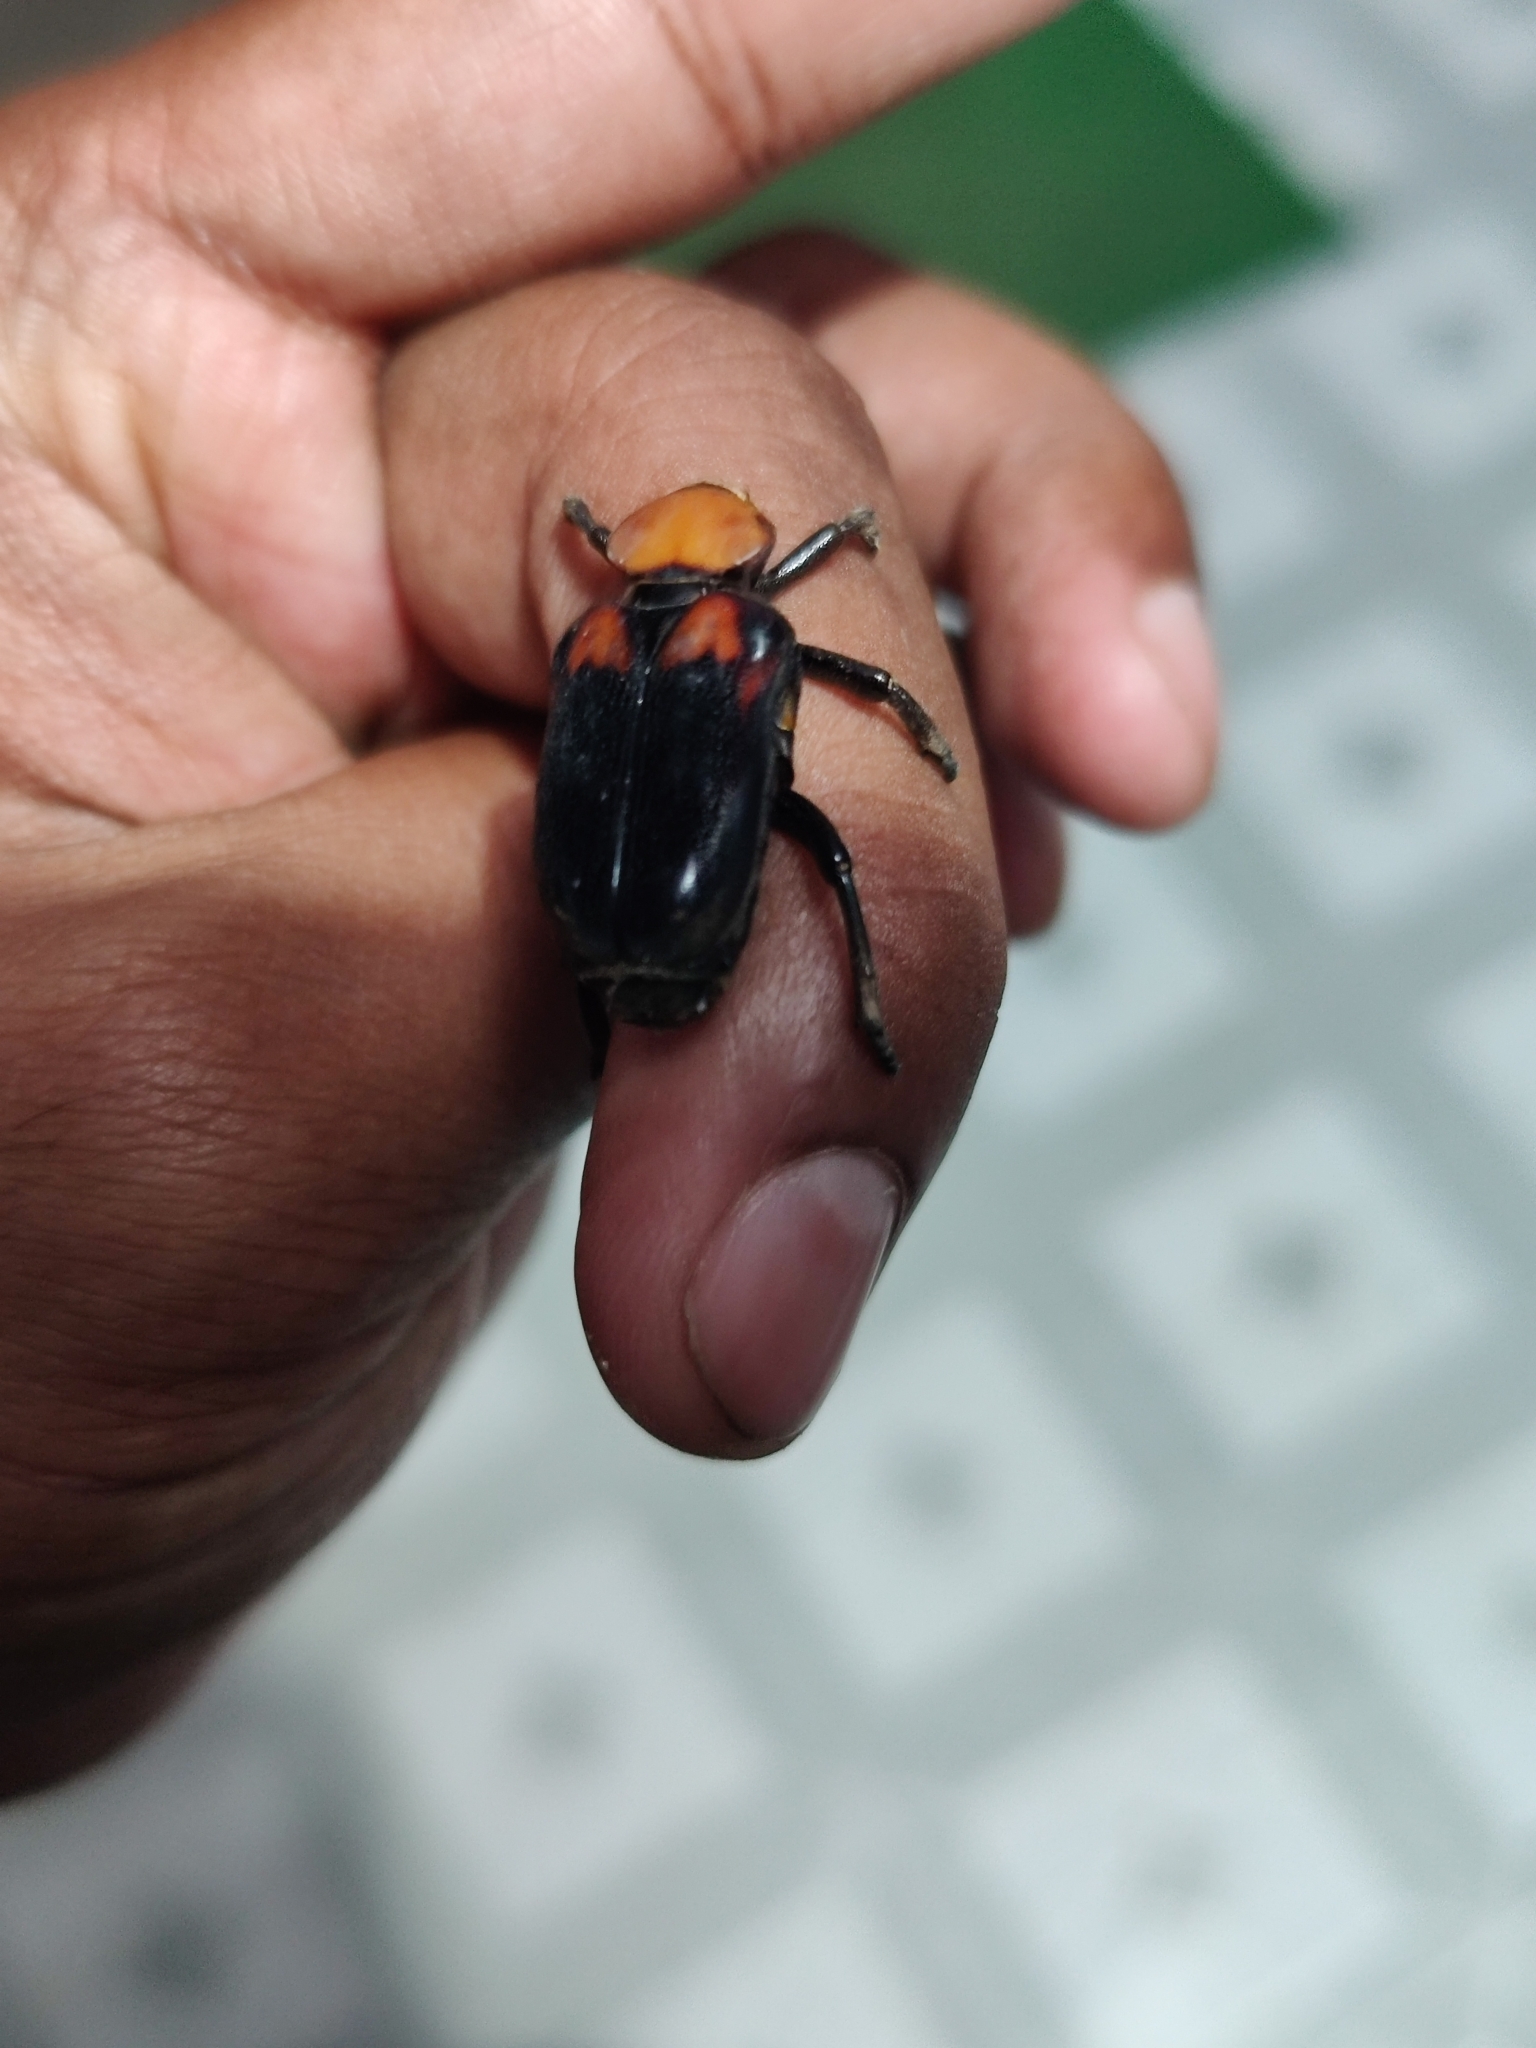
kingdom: Animalia
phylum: Arthropoda
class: Insecta
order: Coleoptera
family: Scarabaeidae
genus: Clinterocera
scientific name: Clinterocera bicolor
